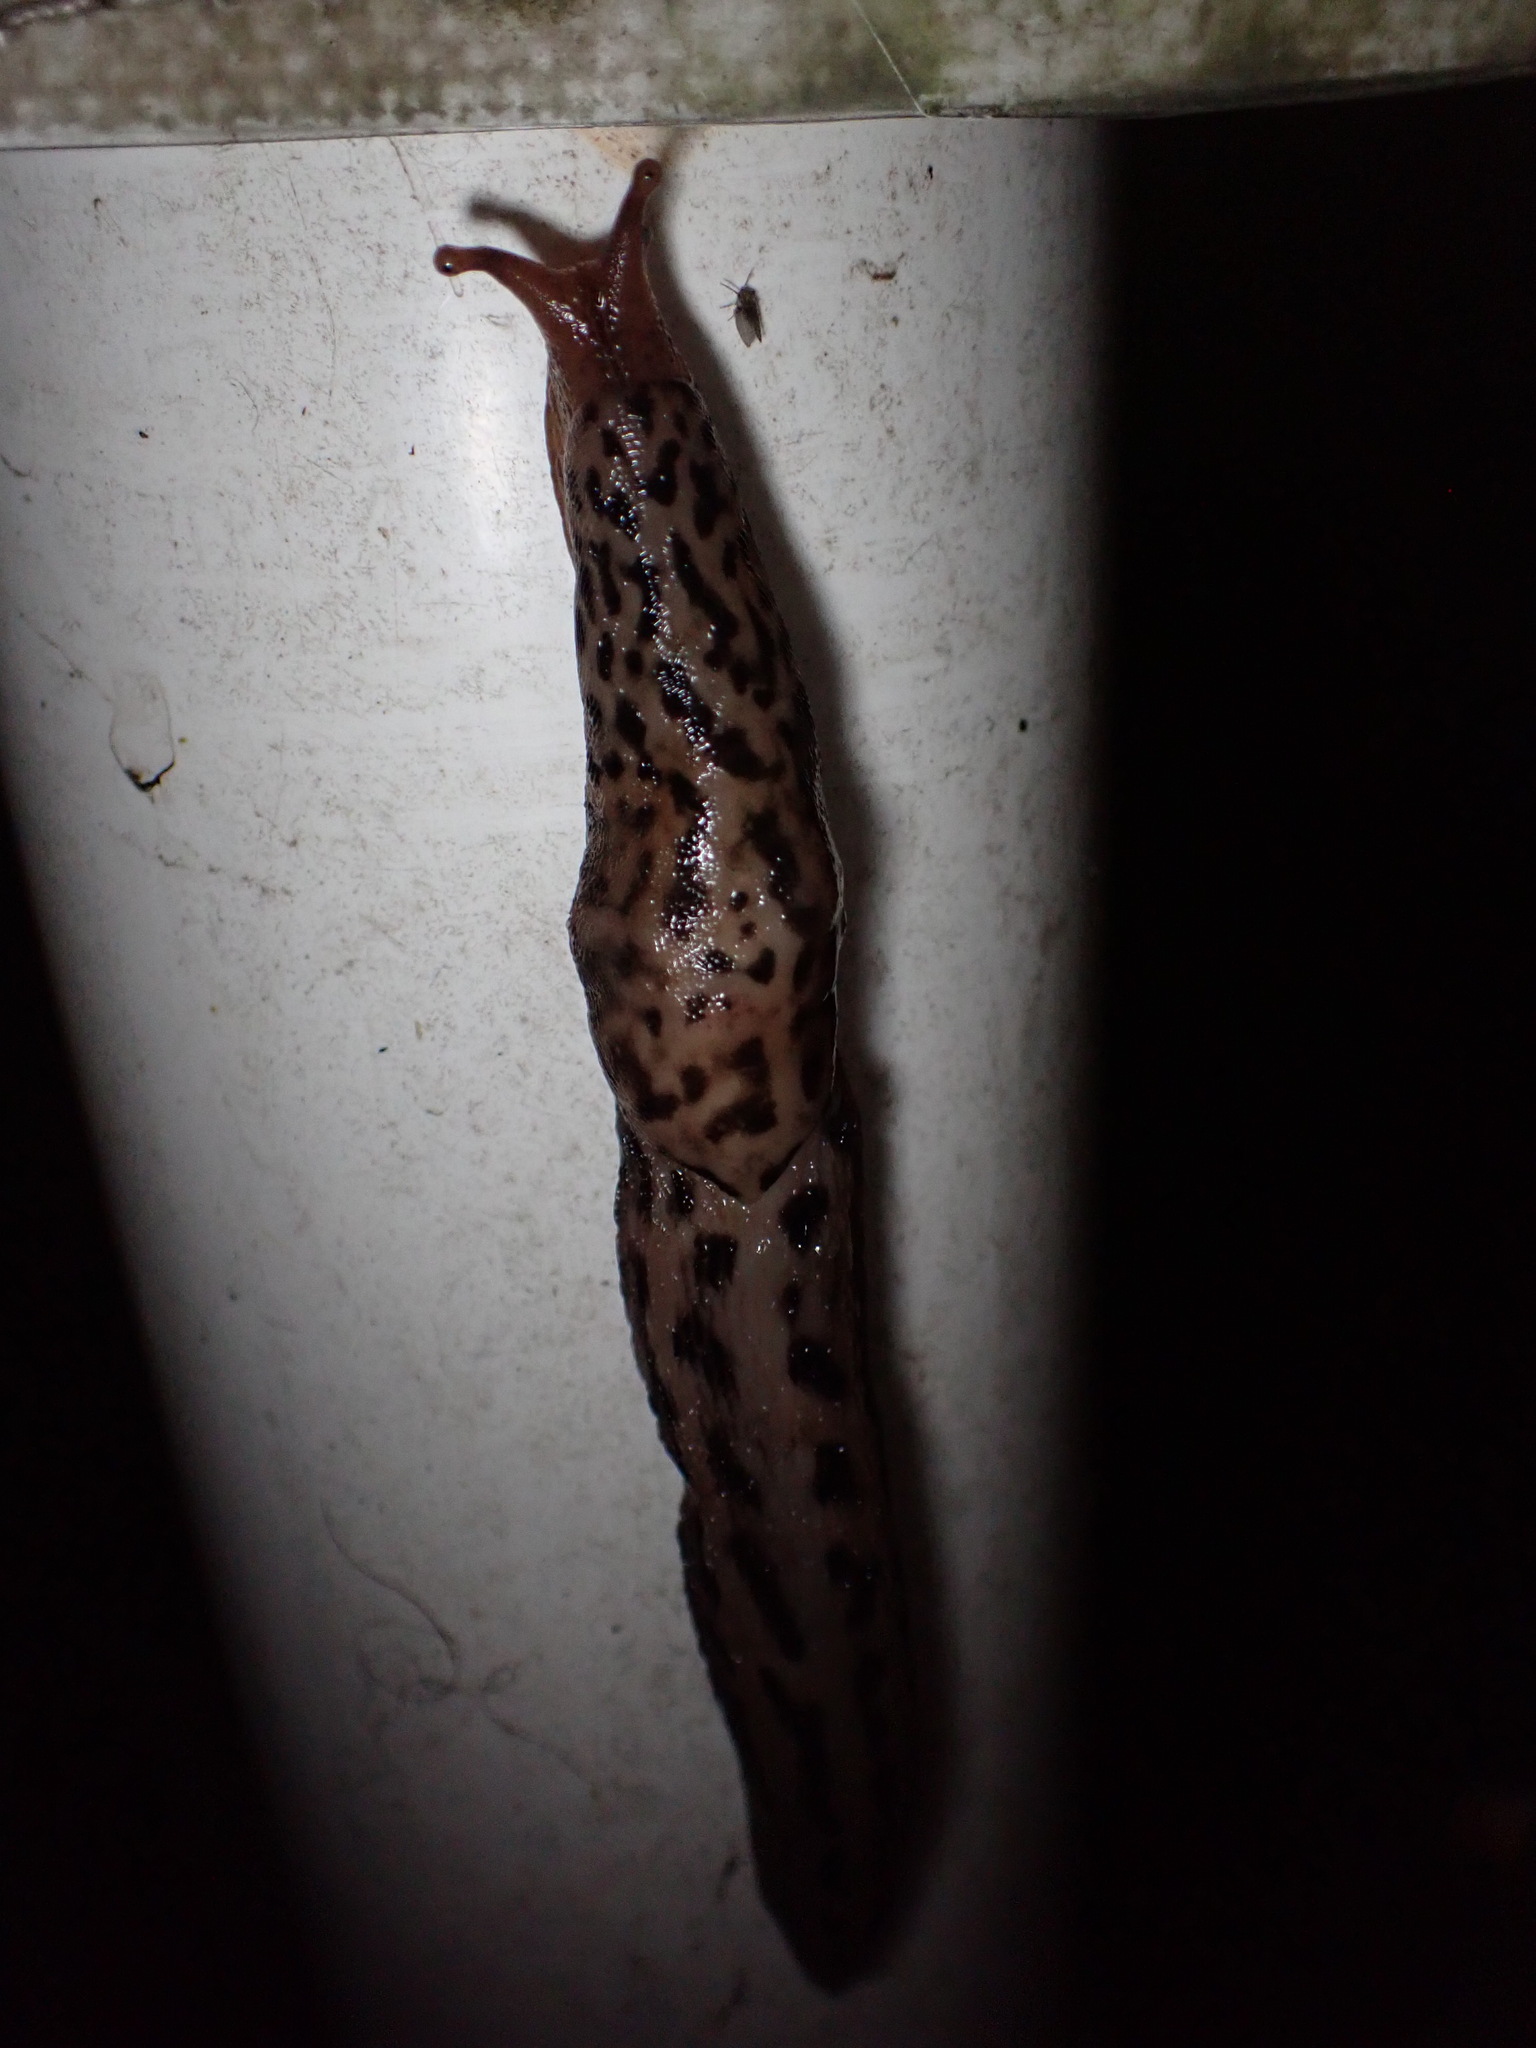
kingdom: Animalia
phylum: Mollusca
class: Gastropoda
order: Stylommatophora
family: Limacidae
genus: Limax
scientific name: Limax maximus
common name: Great grey slug
